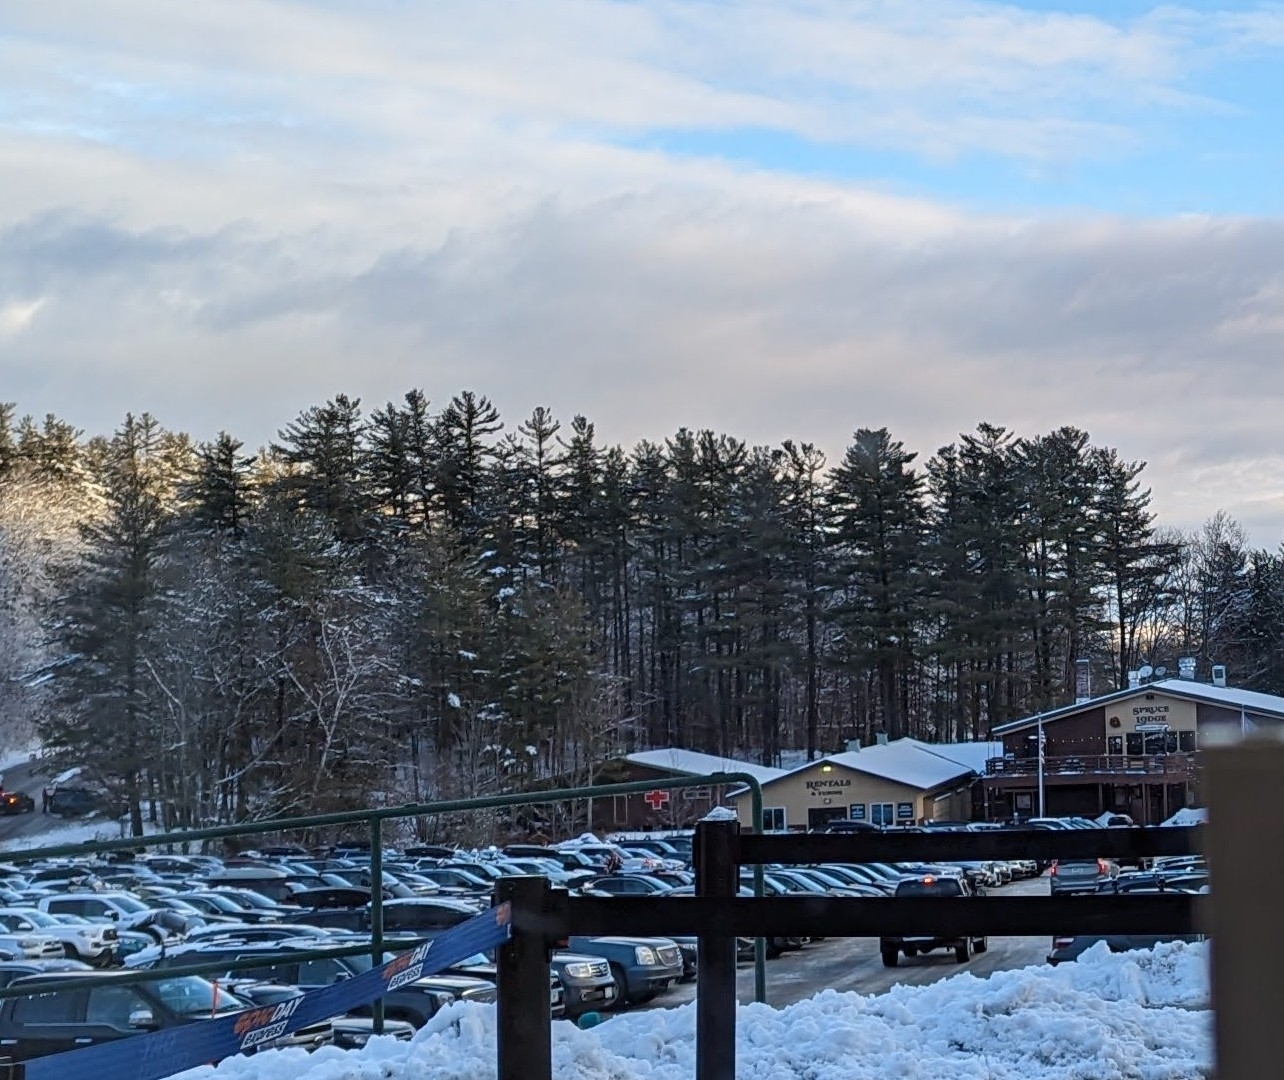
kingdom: Plantae
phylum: Tracheophyta
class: Pinopsida
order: Pinales
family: Pinaceae
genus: Pinus
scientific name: Pinus strobus
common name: Weymouth pine
